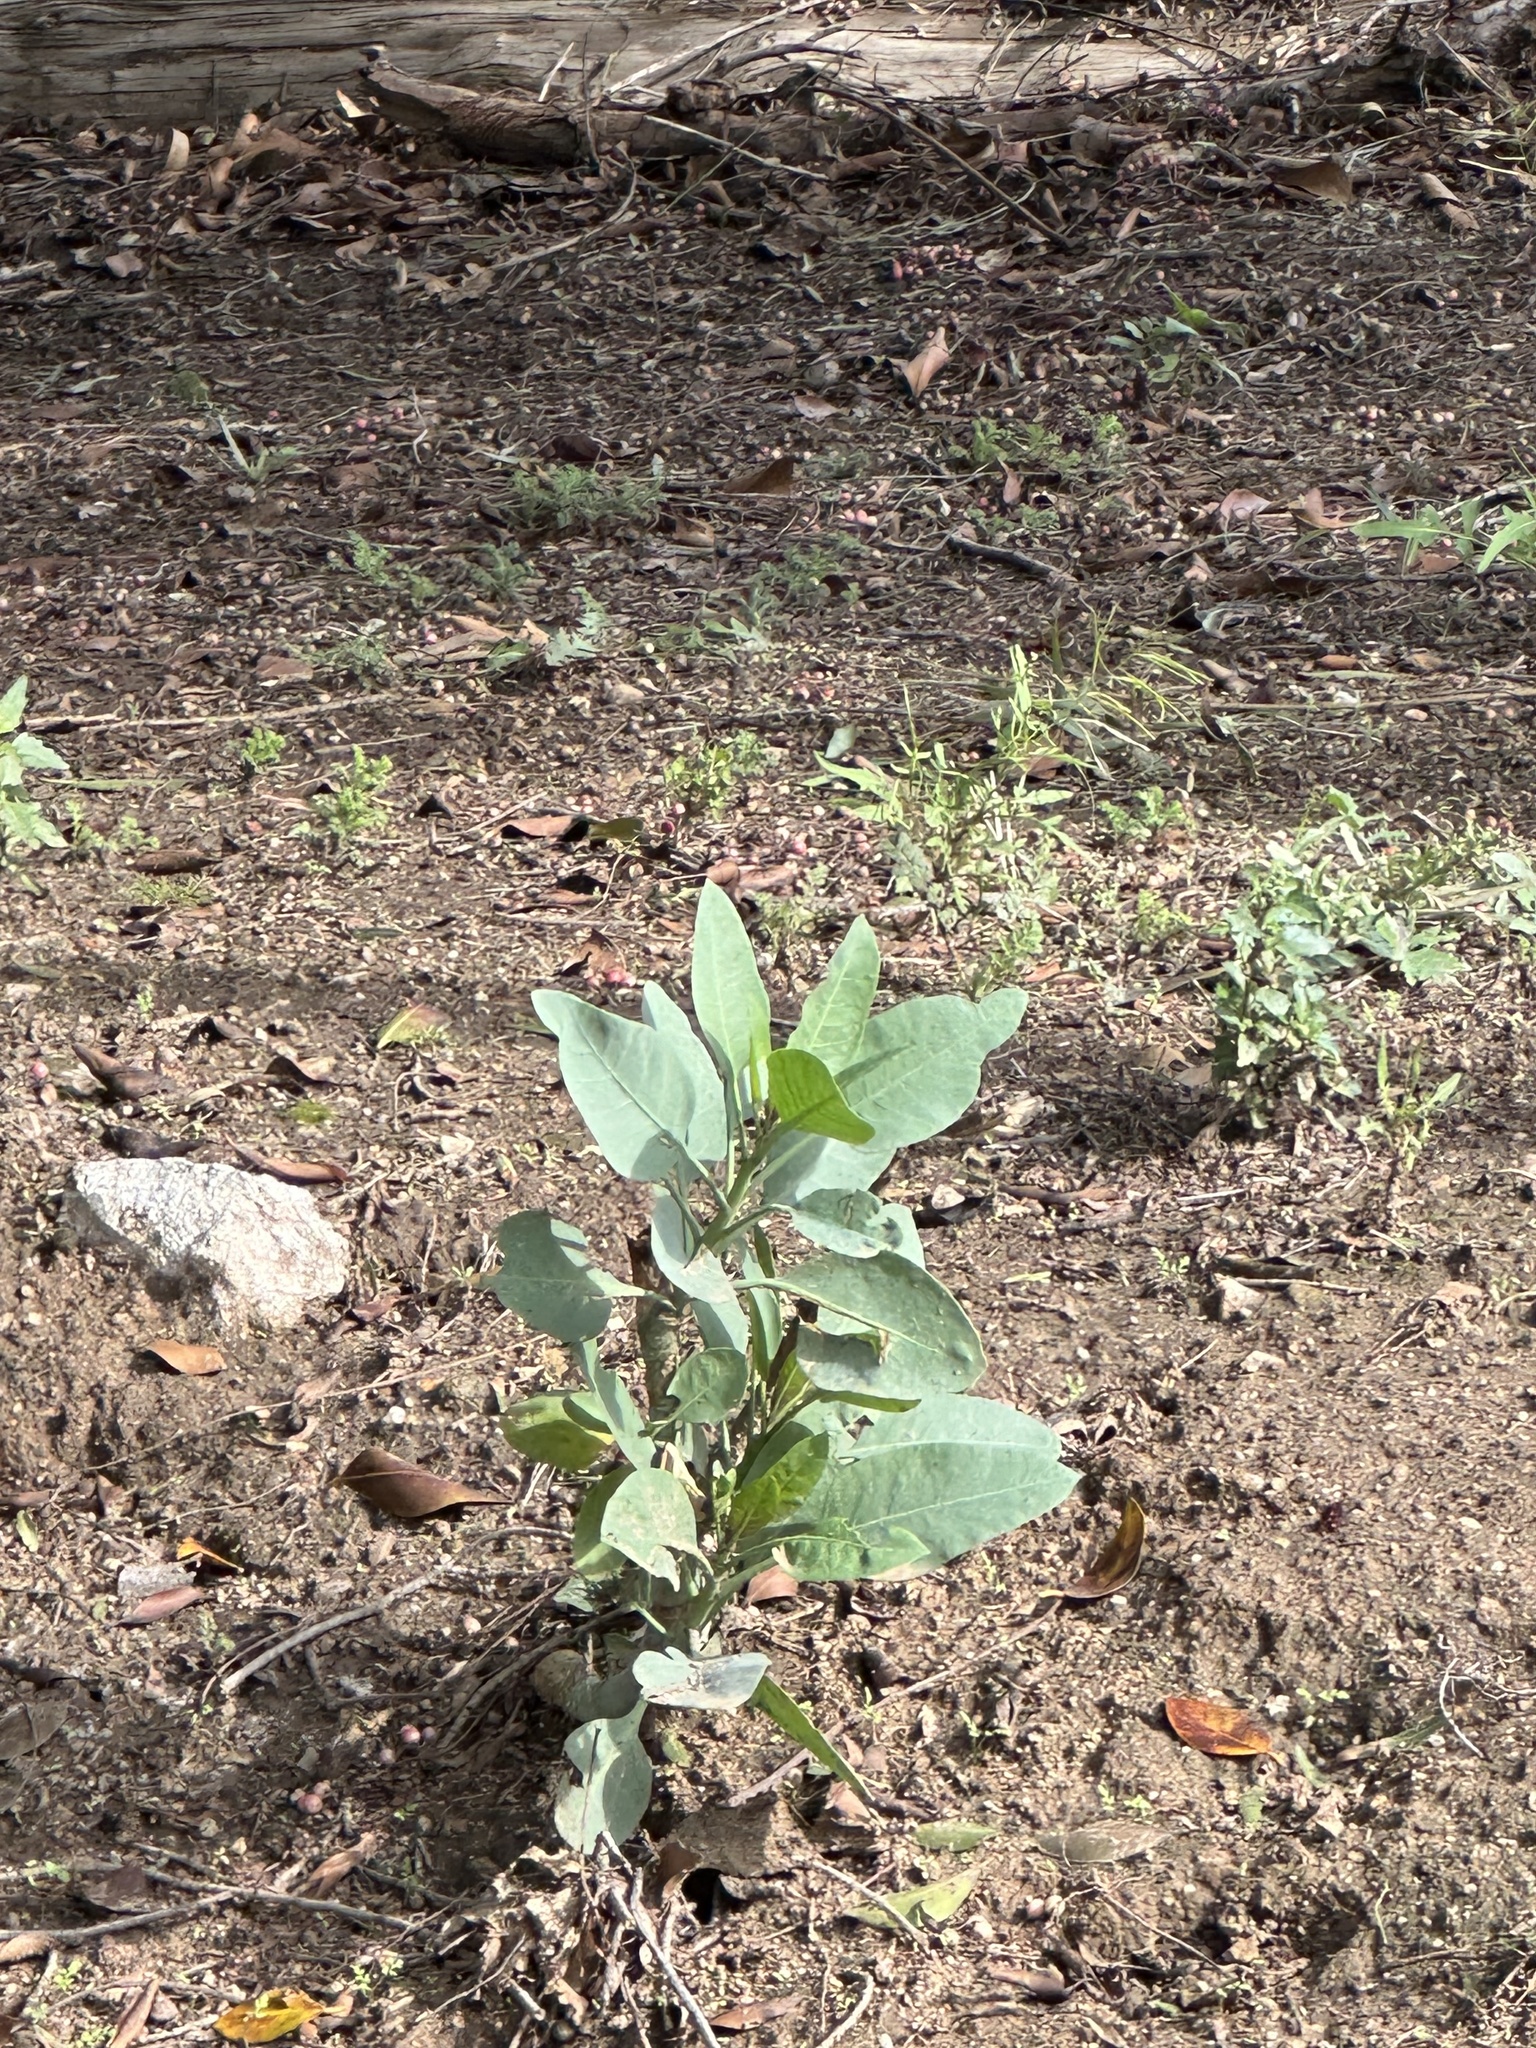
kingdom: Plantae
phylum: Tracheophyta
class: Magnoliopsida
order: Solanales
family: Solanaceae
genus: Nicotiana
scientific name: Nicotiana glauca
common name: Tree tobacco
